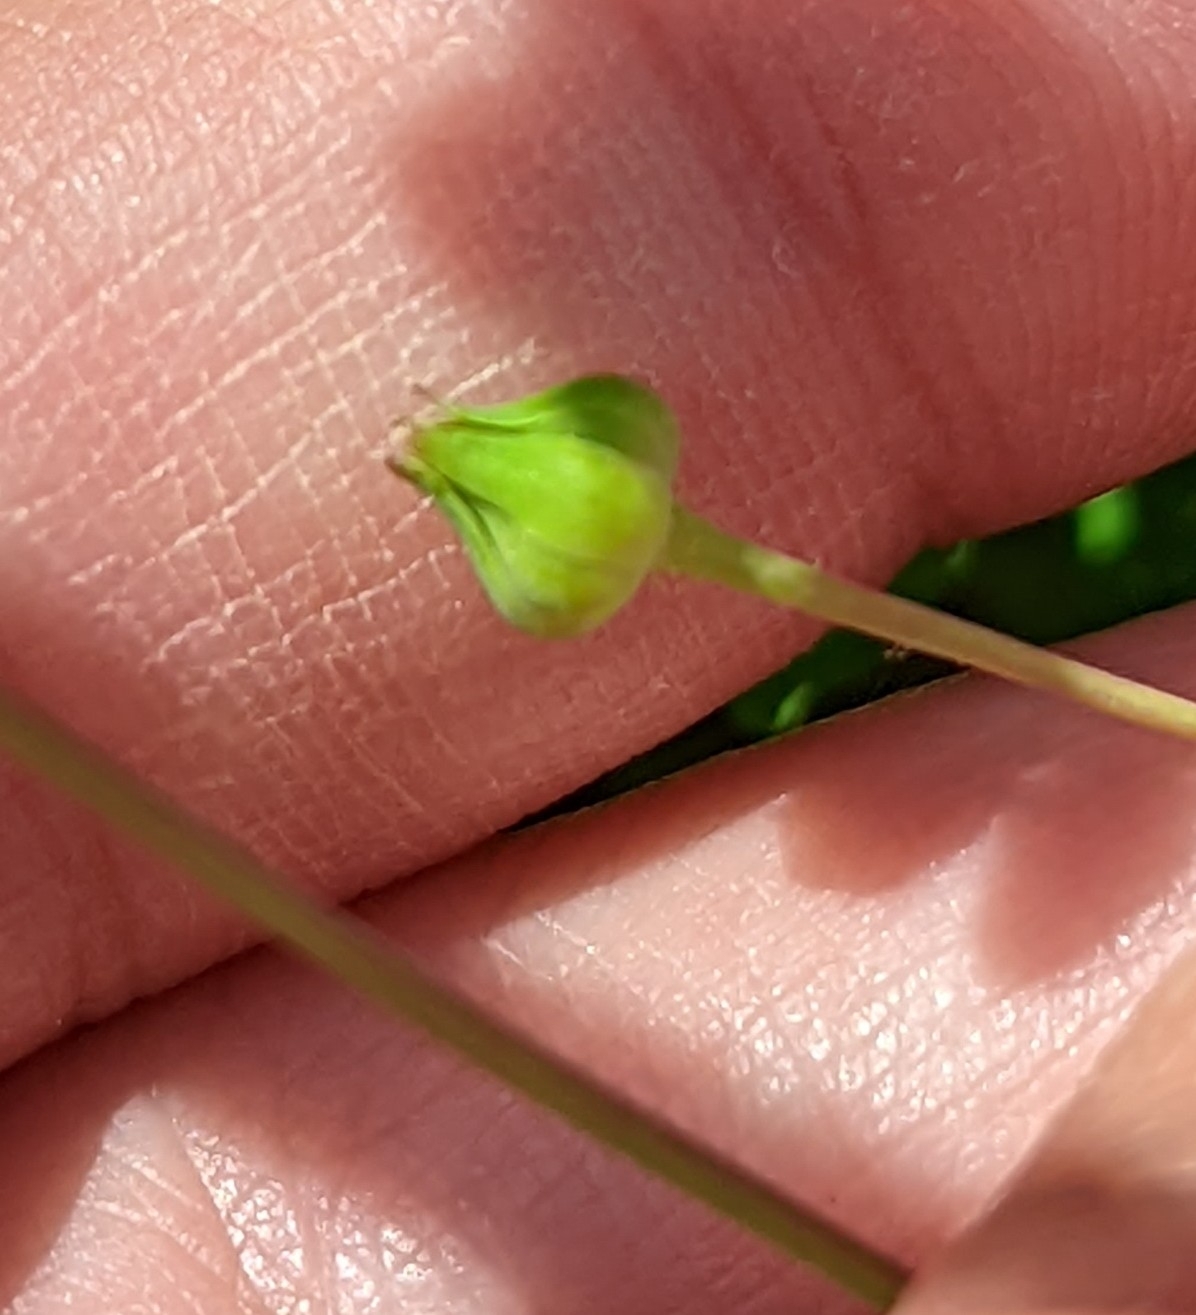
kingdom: Plantae
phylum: Tracheophyta
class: Magnoliopsida
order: Asterales
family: Asteraceae
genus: Krigia
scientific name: Krigia cespitosa
